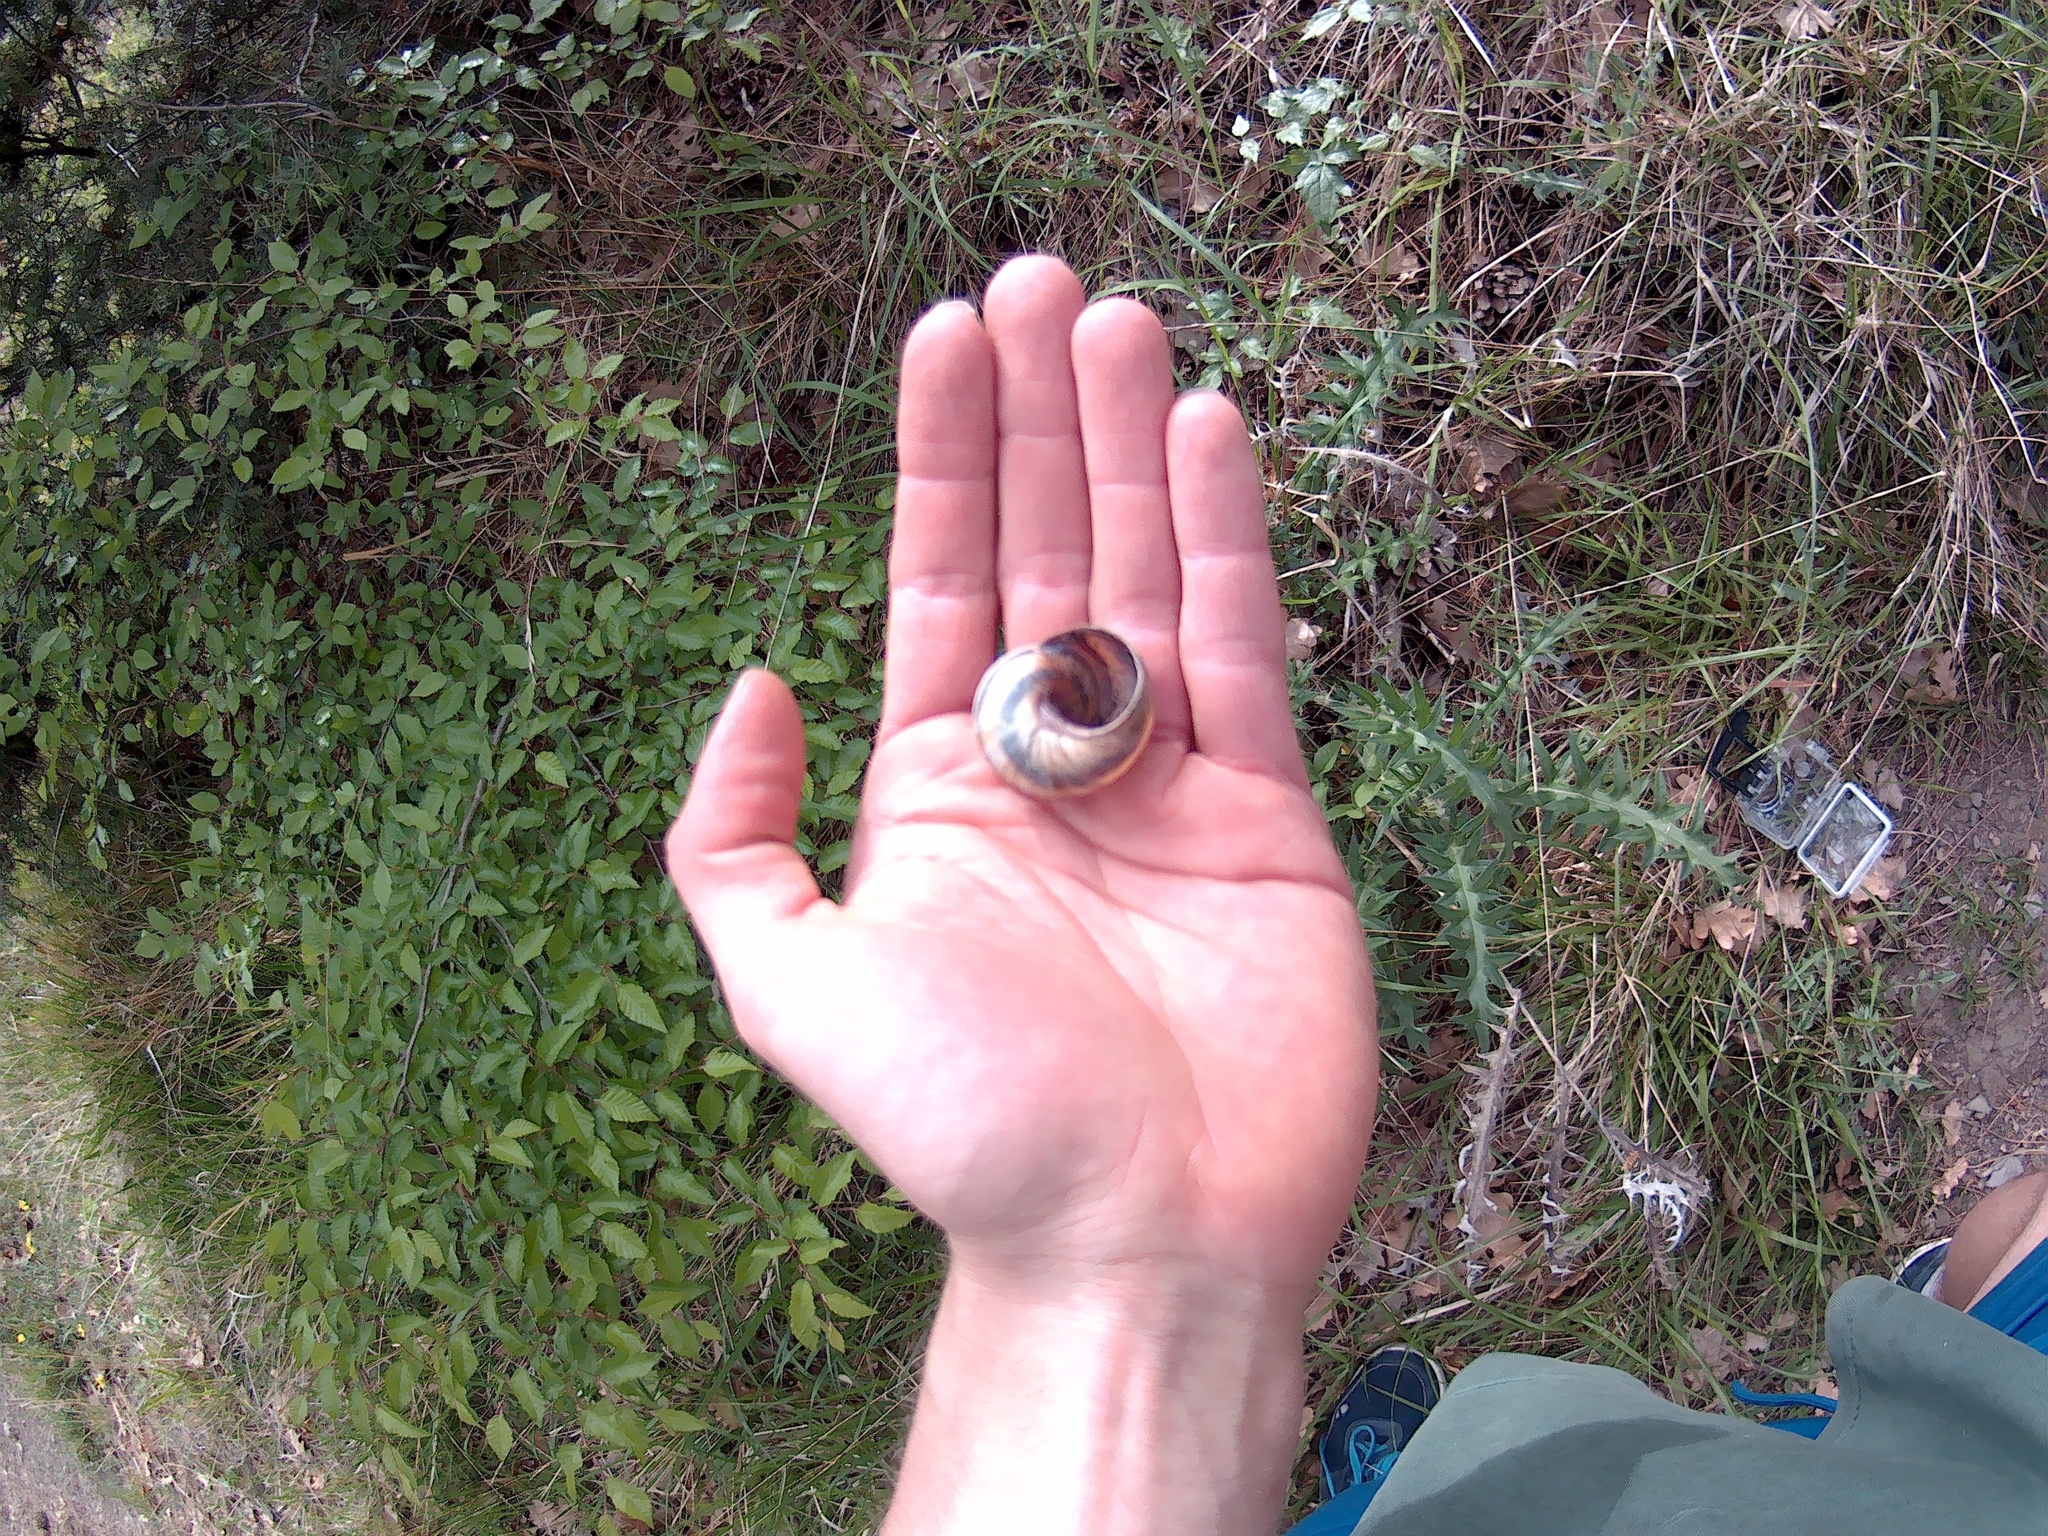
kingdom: Animalia
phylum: Mollusca
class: Gastropoda
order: Stylommatophora
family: Helicidae
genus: Helix
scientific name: Helix albescens
